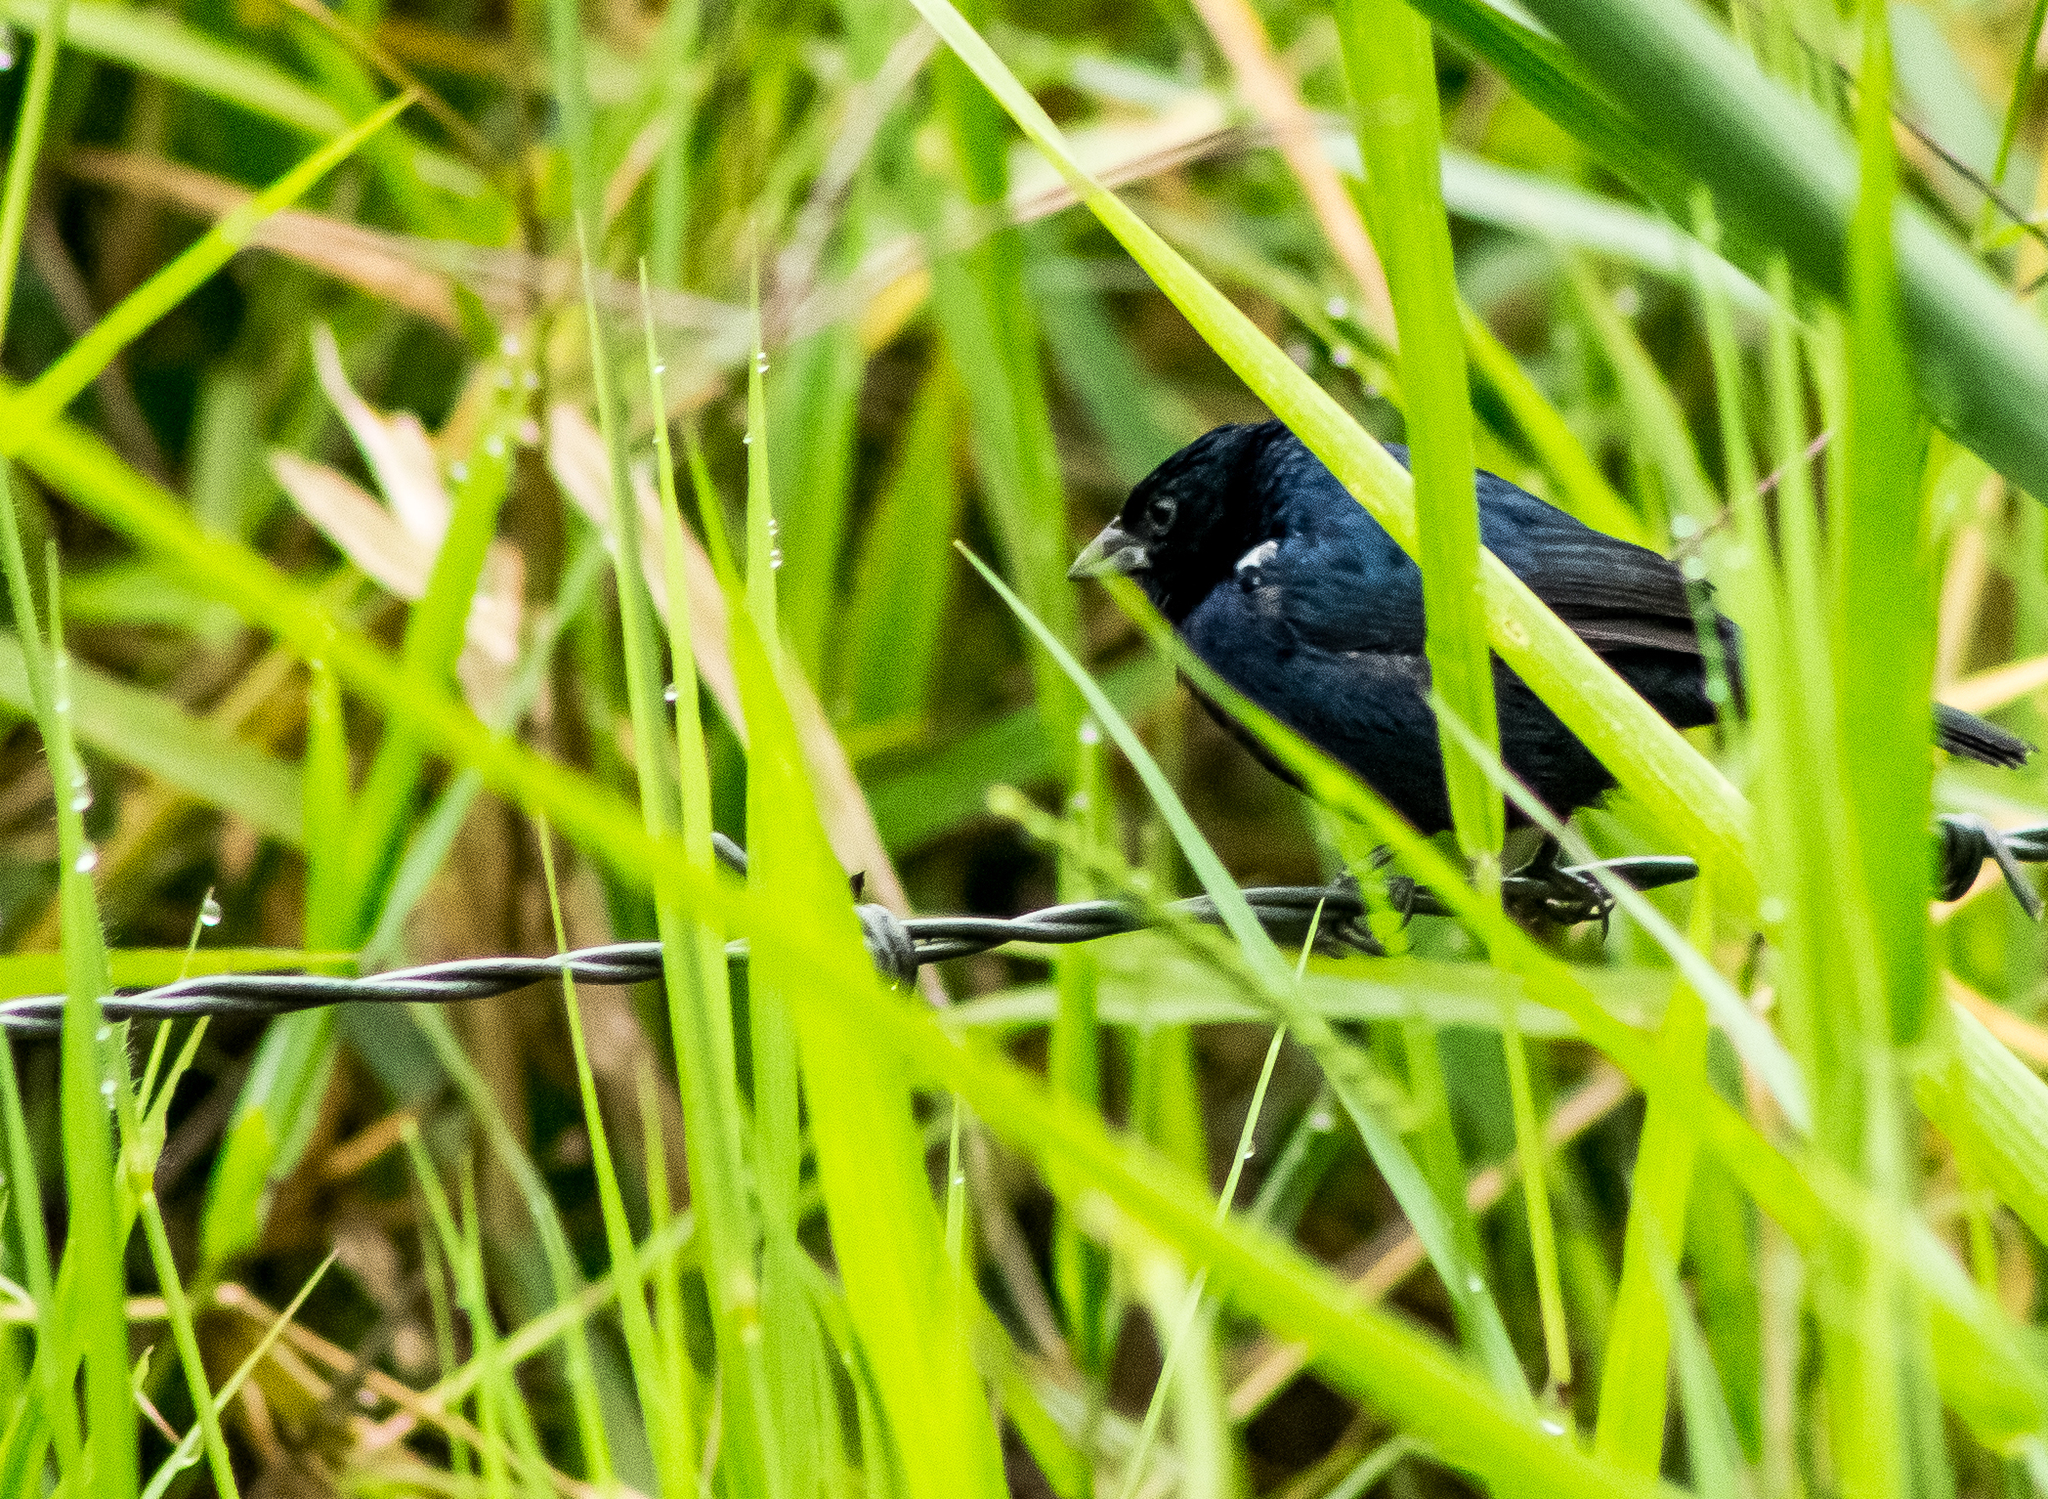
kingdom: Animalia
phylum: Chordata
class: Aves
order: Passeriformes
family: Thraupidae
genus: Volatinia
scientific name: Volatinia jacarina
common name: Blue-black grassquit
